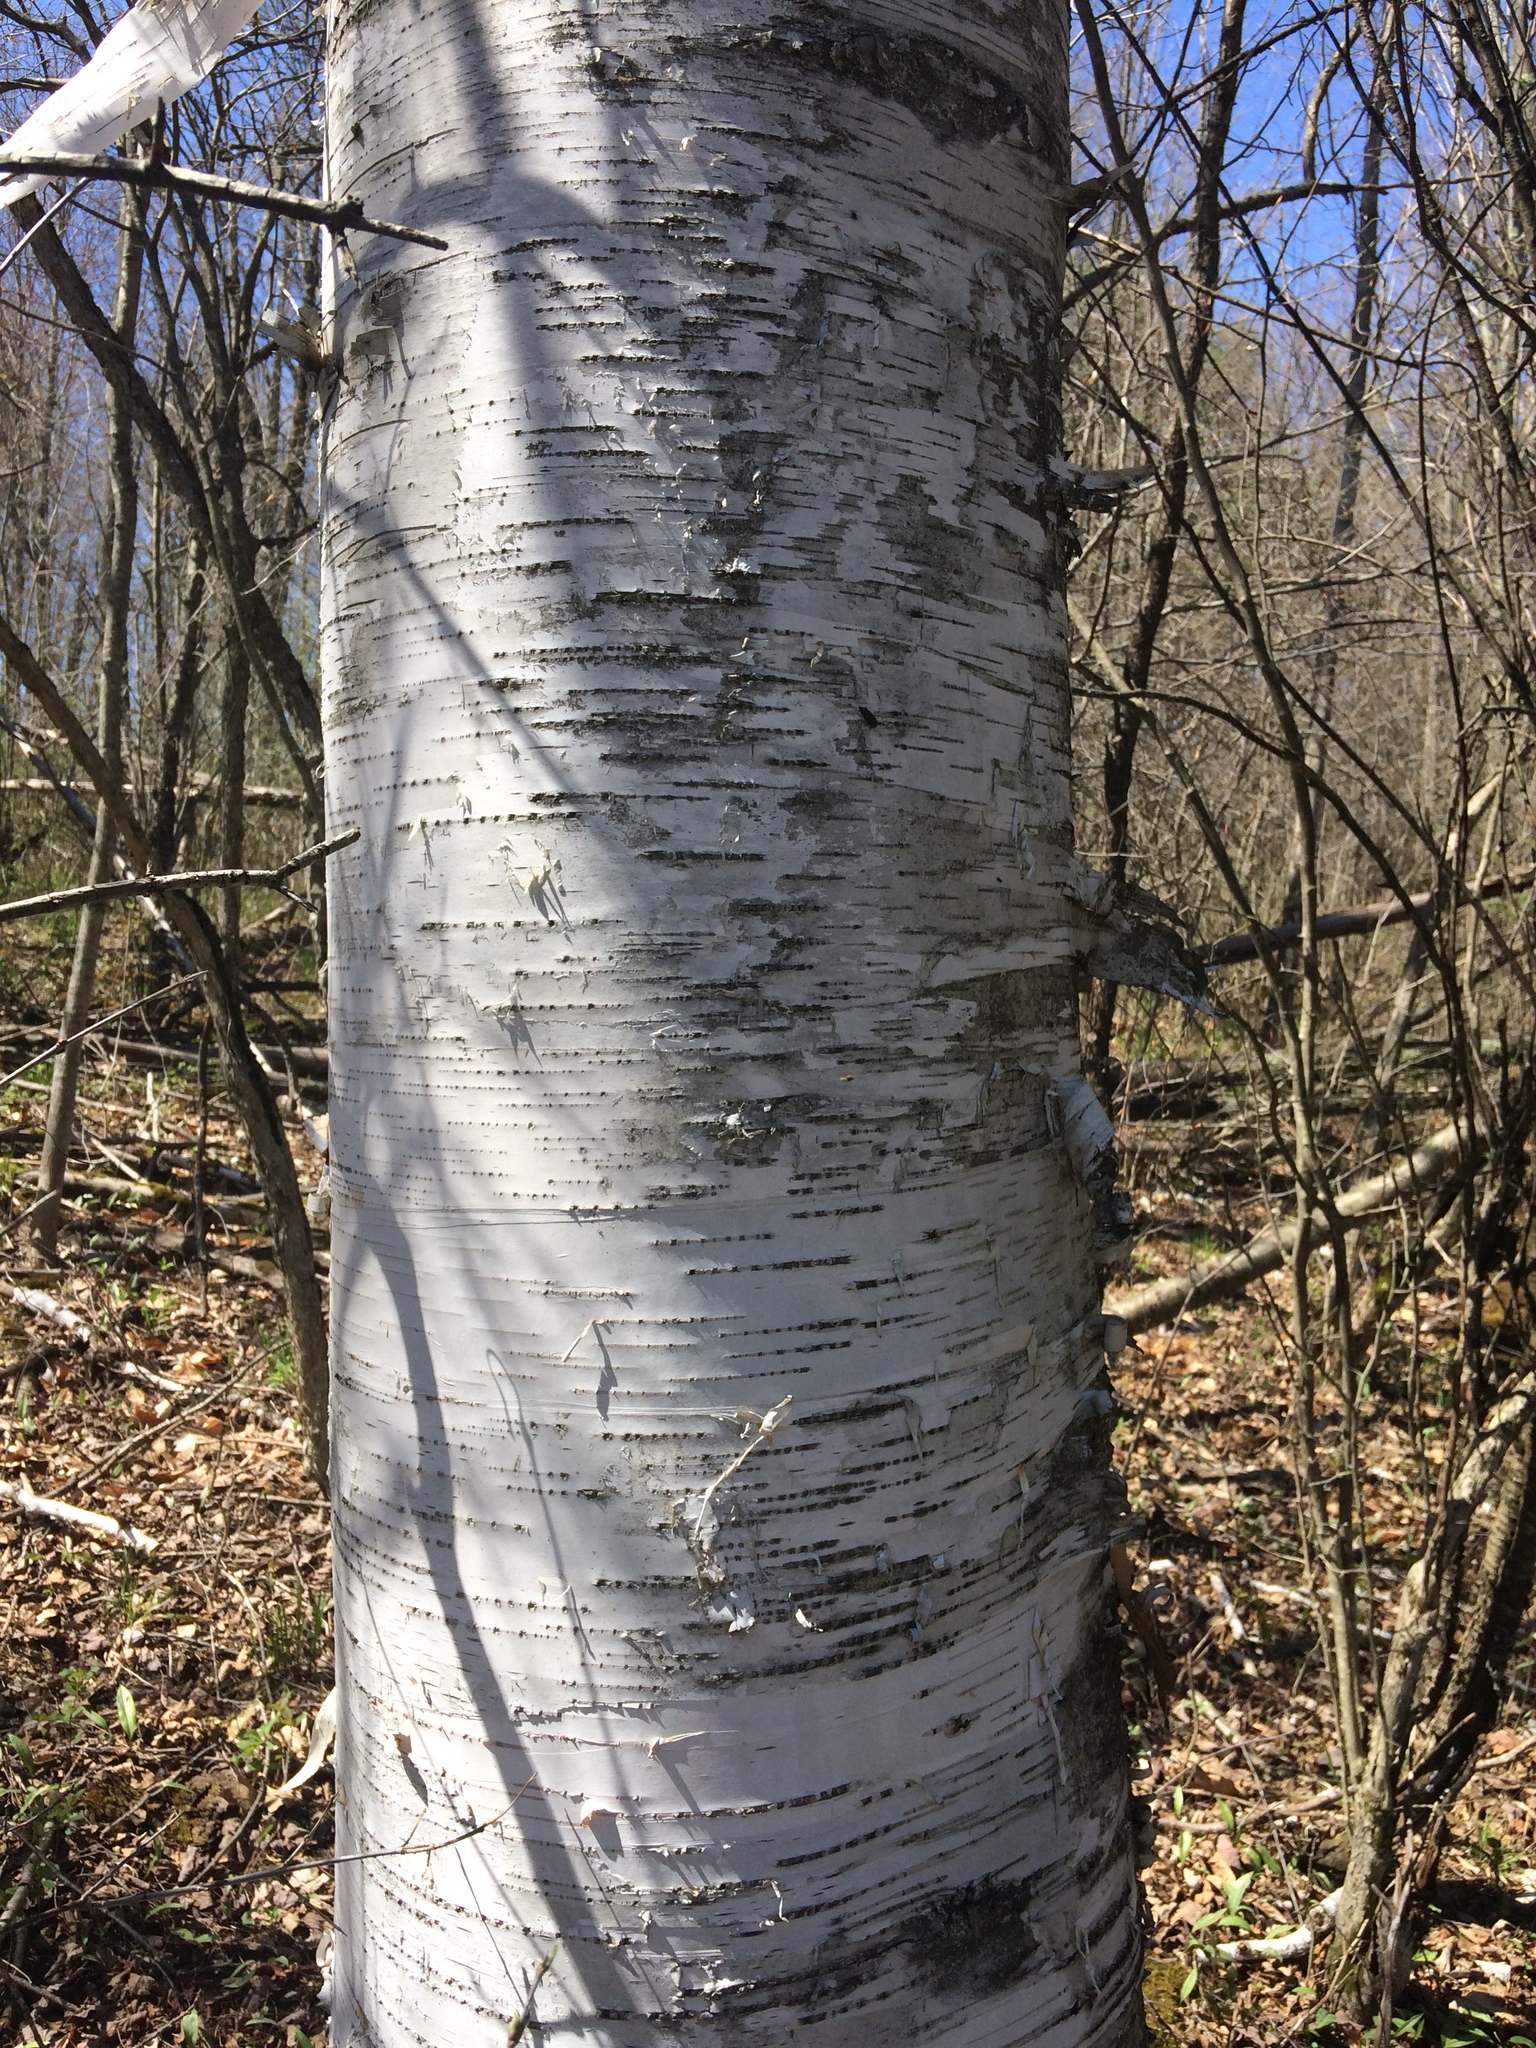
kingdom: Plantae
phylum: Tracheophyta
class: Magnoliopsida
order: Fagales
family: Betulaceae
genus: Betula
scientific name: Betula papyrifera
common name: Paper birch
